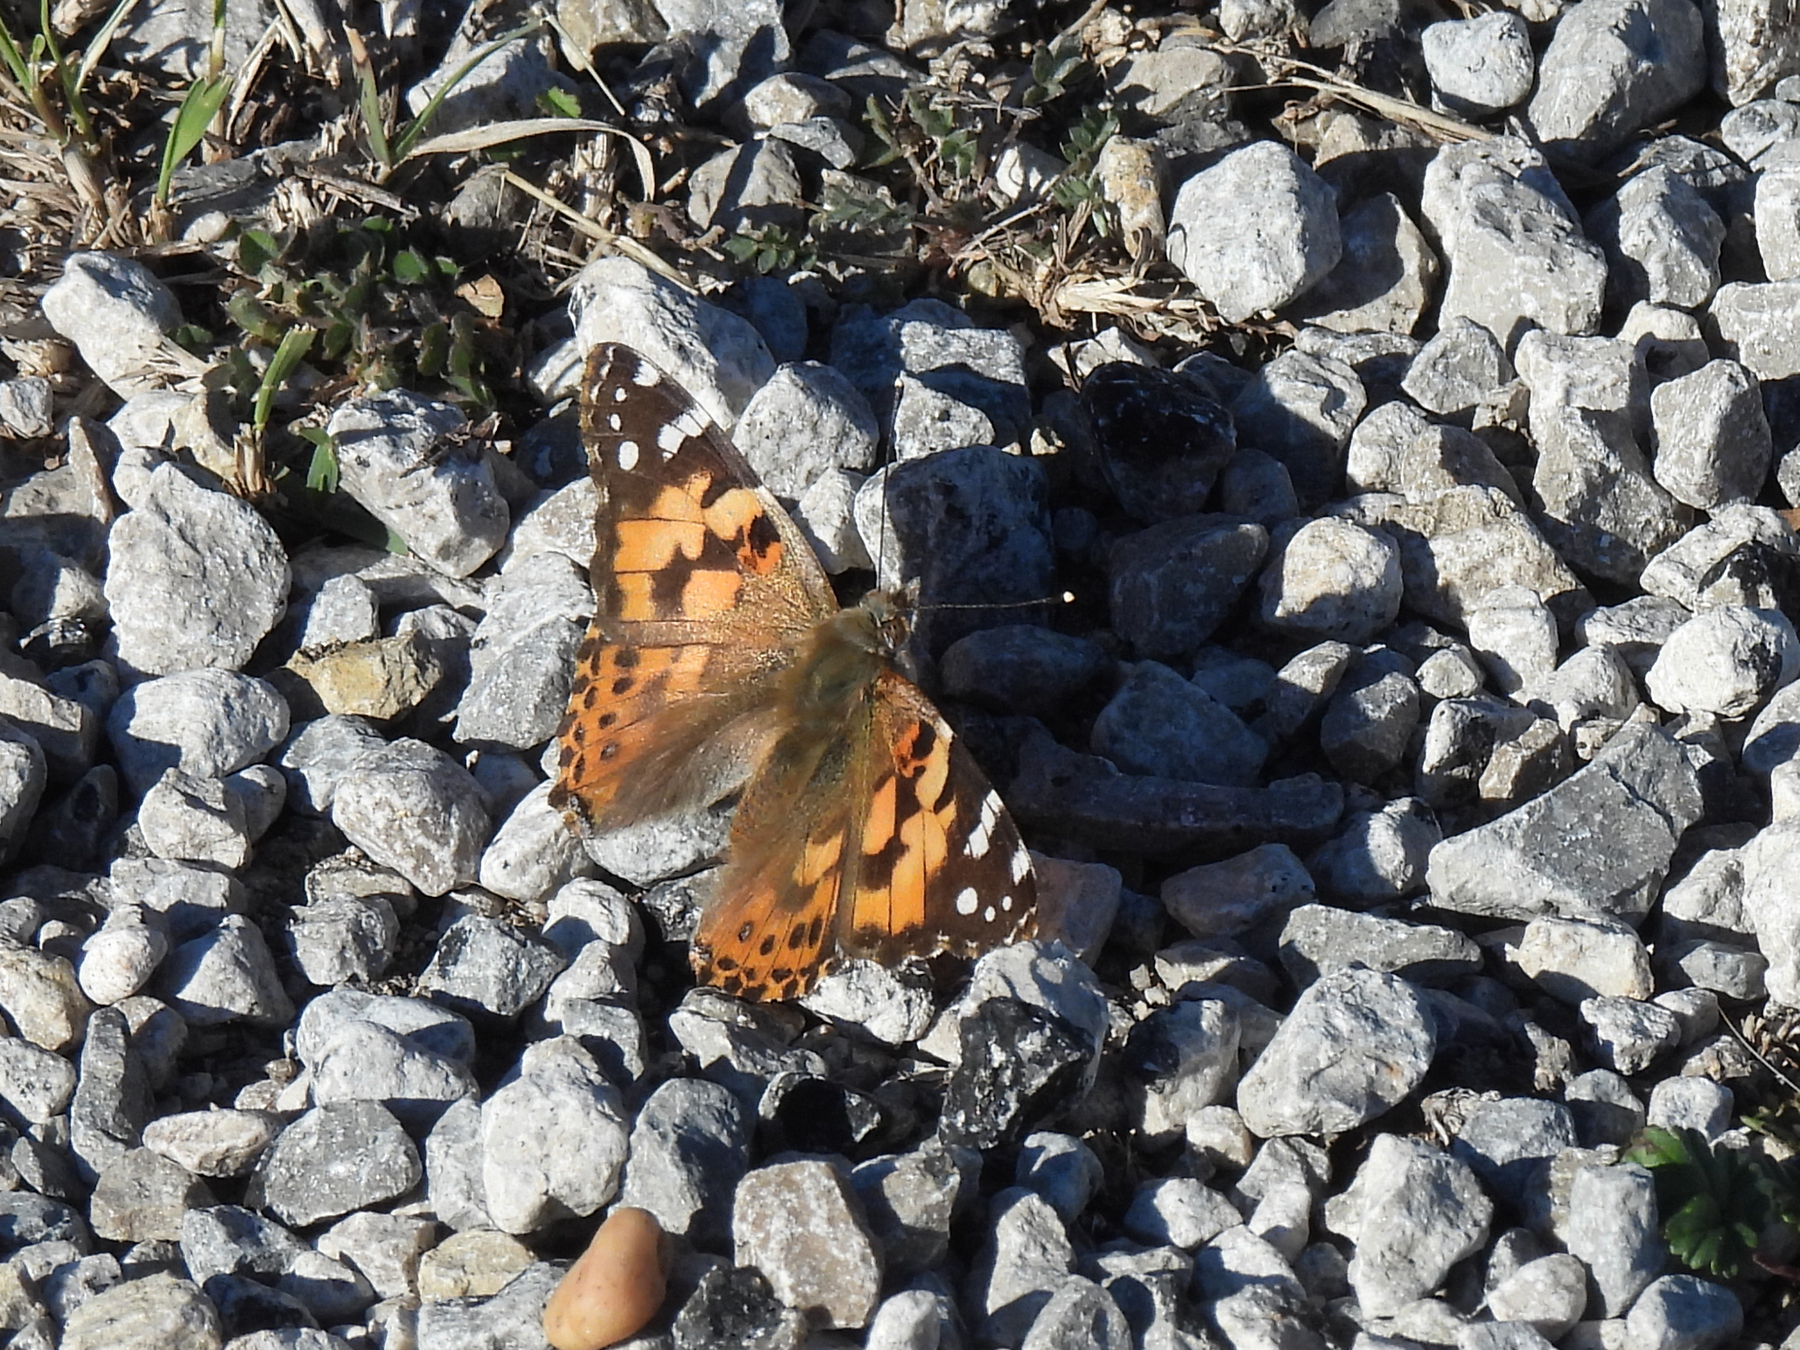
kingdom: Animalia
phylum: Arthropoda
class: Insecta
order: Lepidoptera
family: Nymphalidae
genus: Vanessa
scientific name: Vanessa cardui
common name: Painted lady
